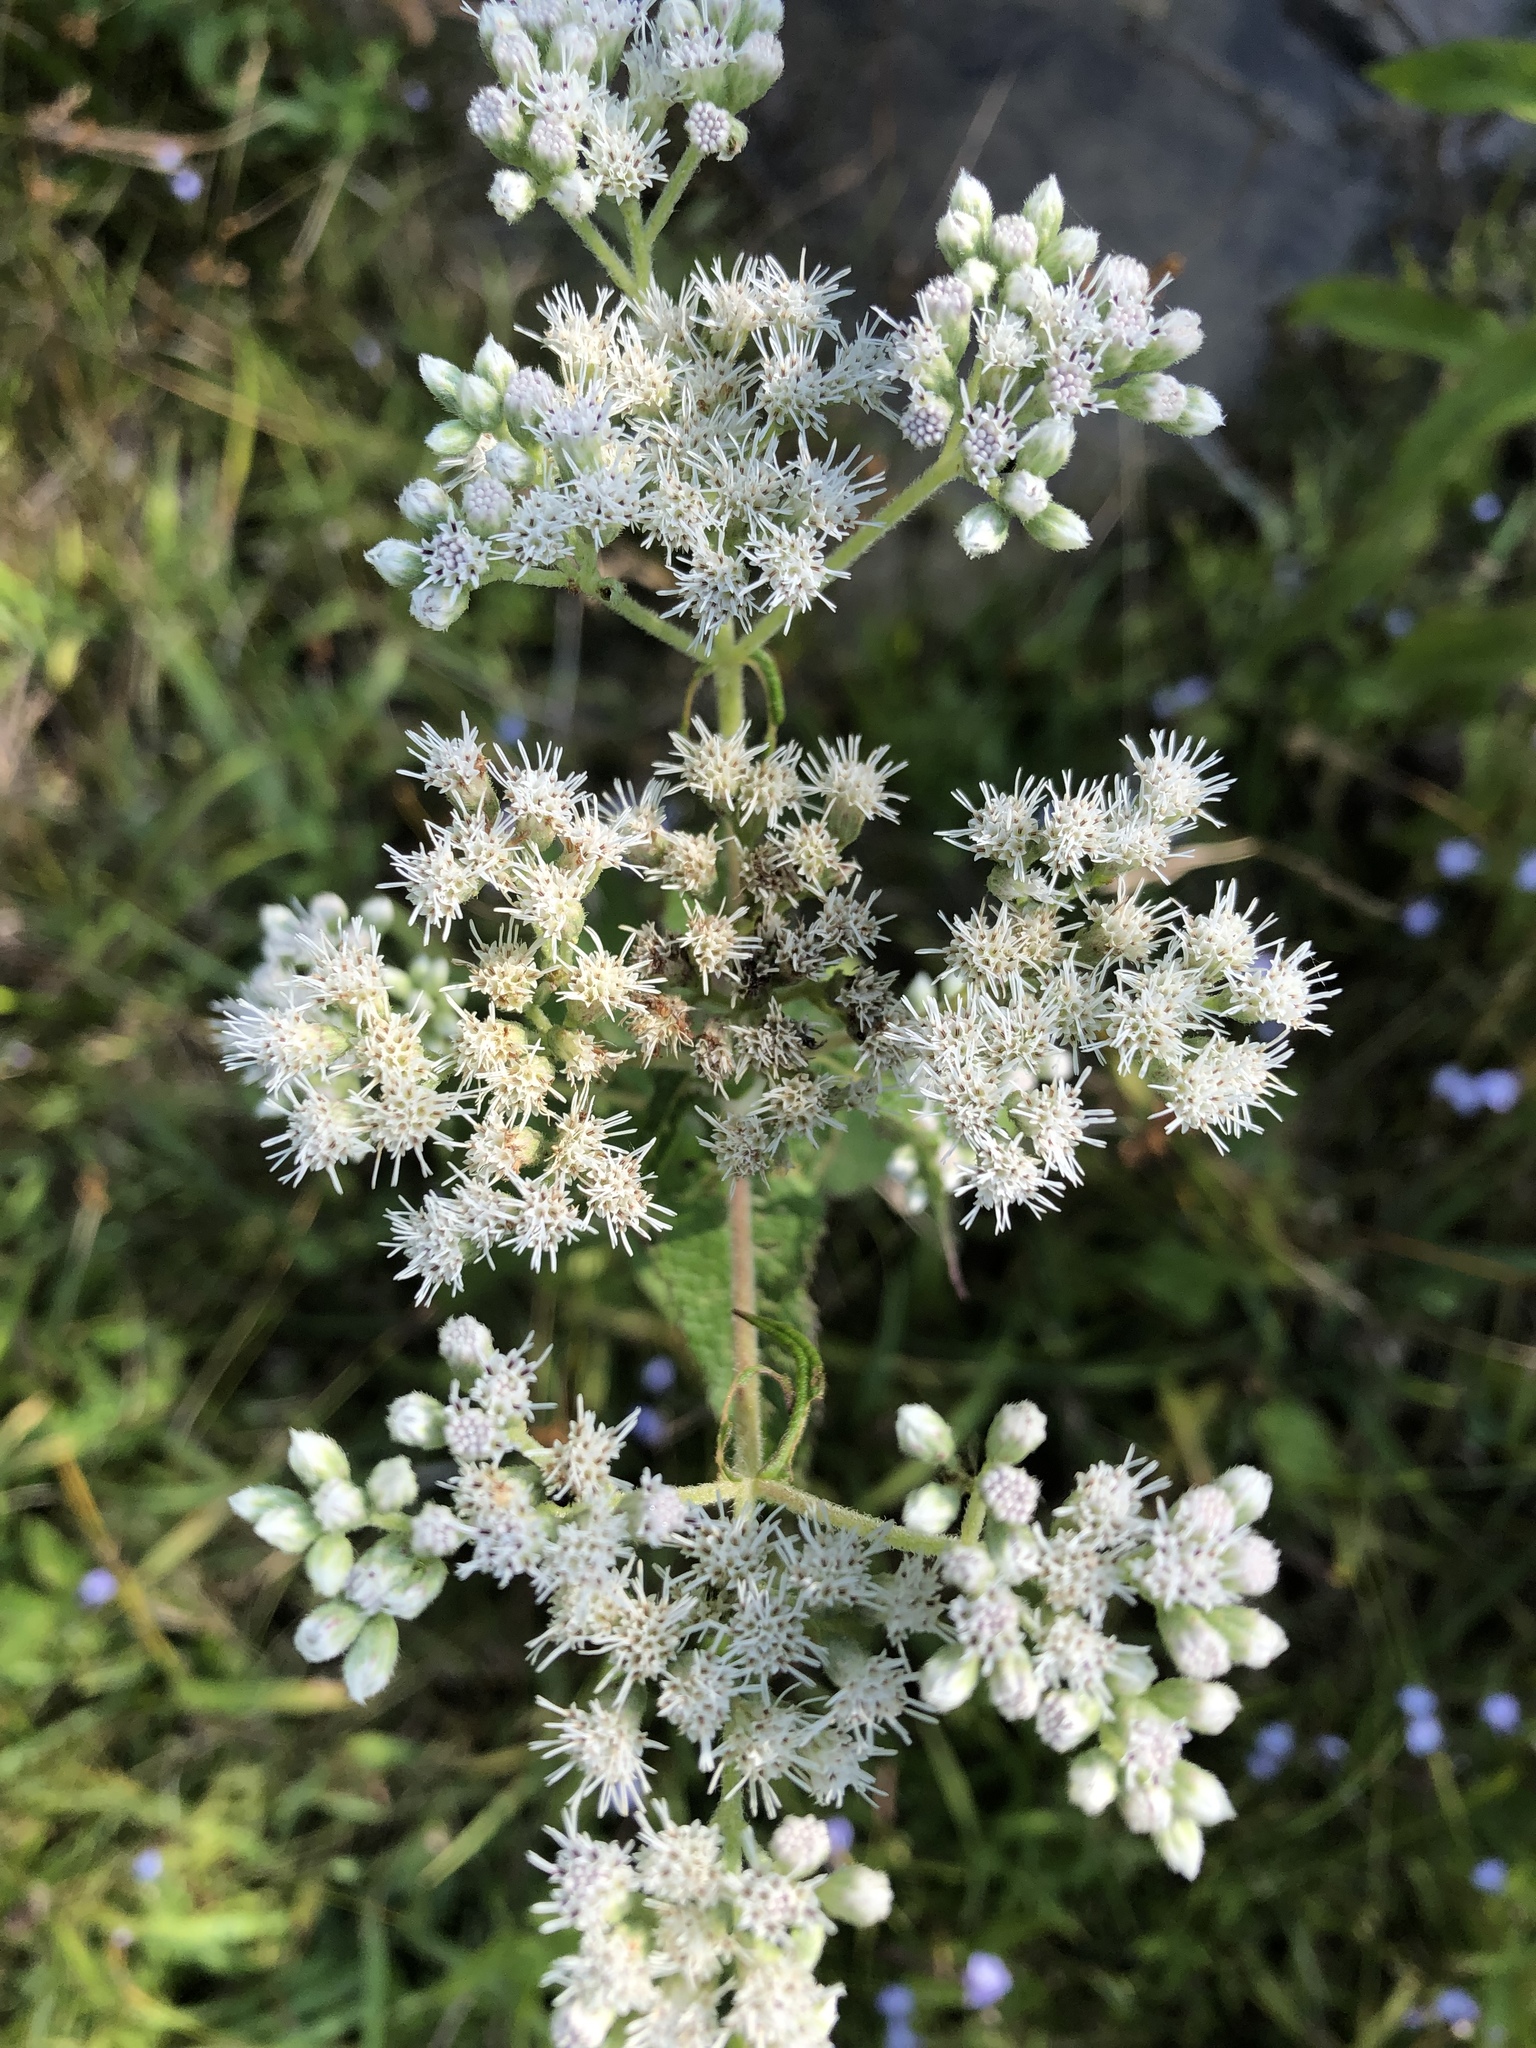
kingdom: Plantae
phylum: Tracheophyta
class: Magnoliopsida
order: Asterales
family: Asteraceae
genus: Eupatorium
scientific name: Eupatorium perfoliatum
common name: Boneset
